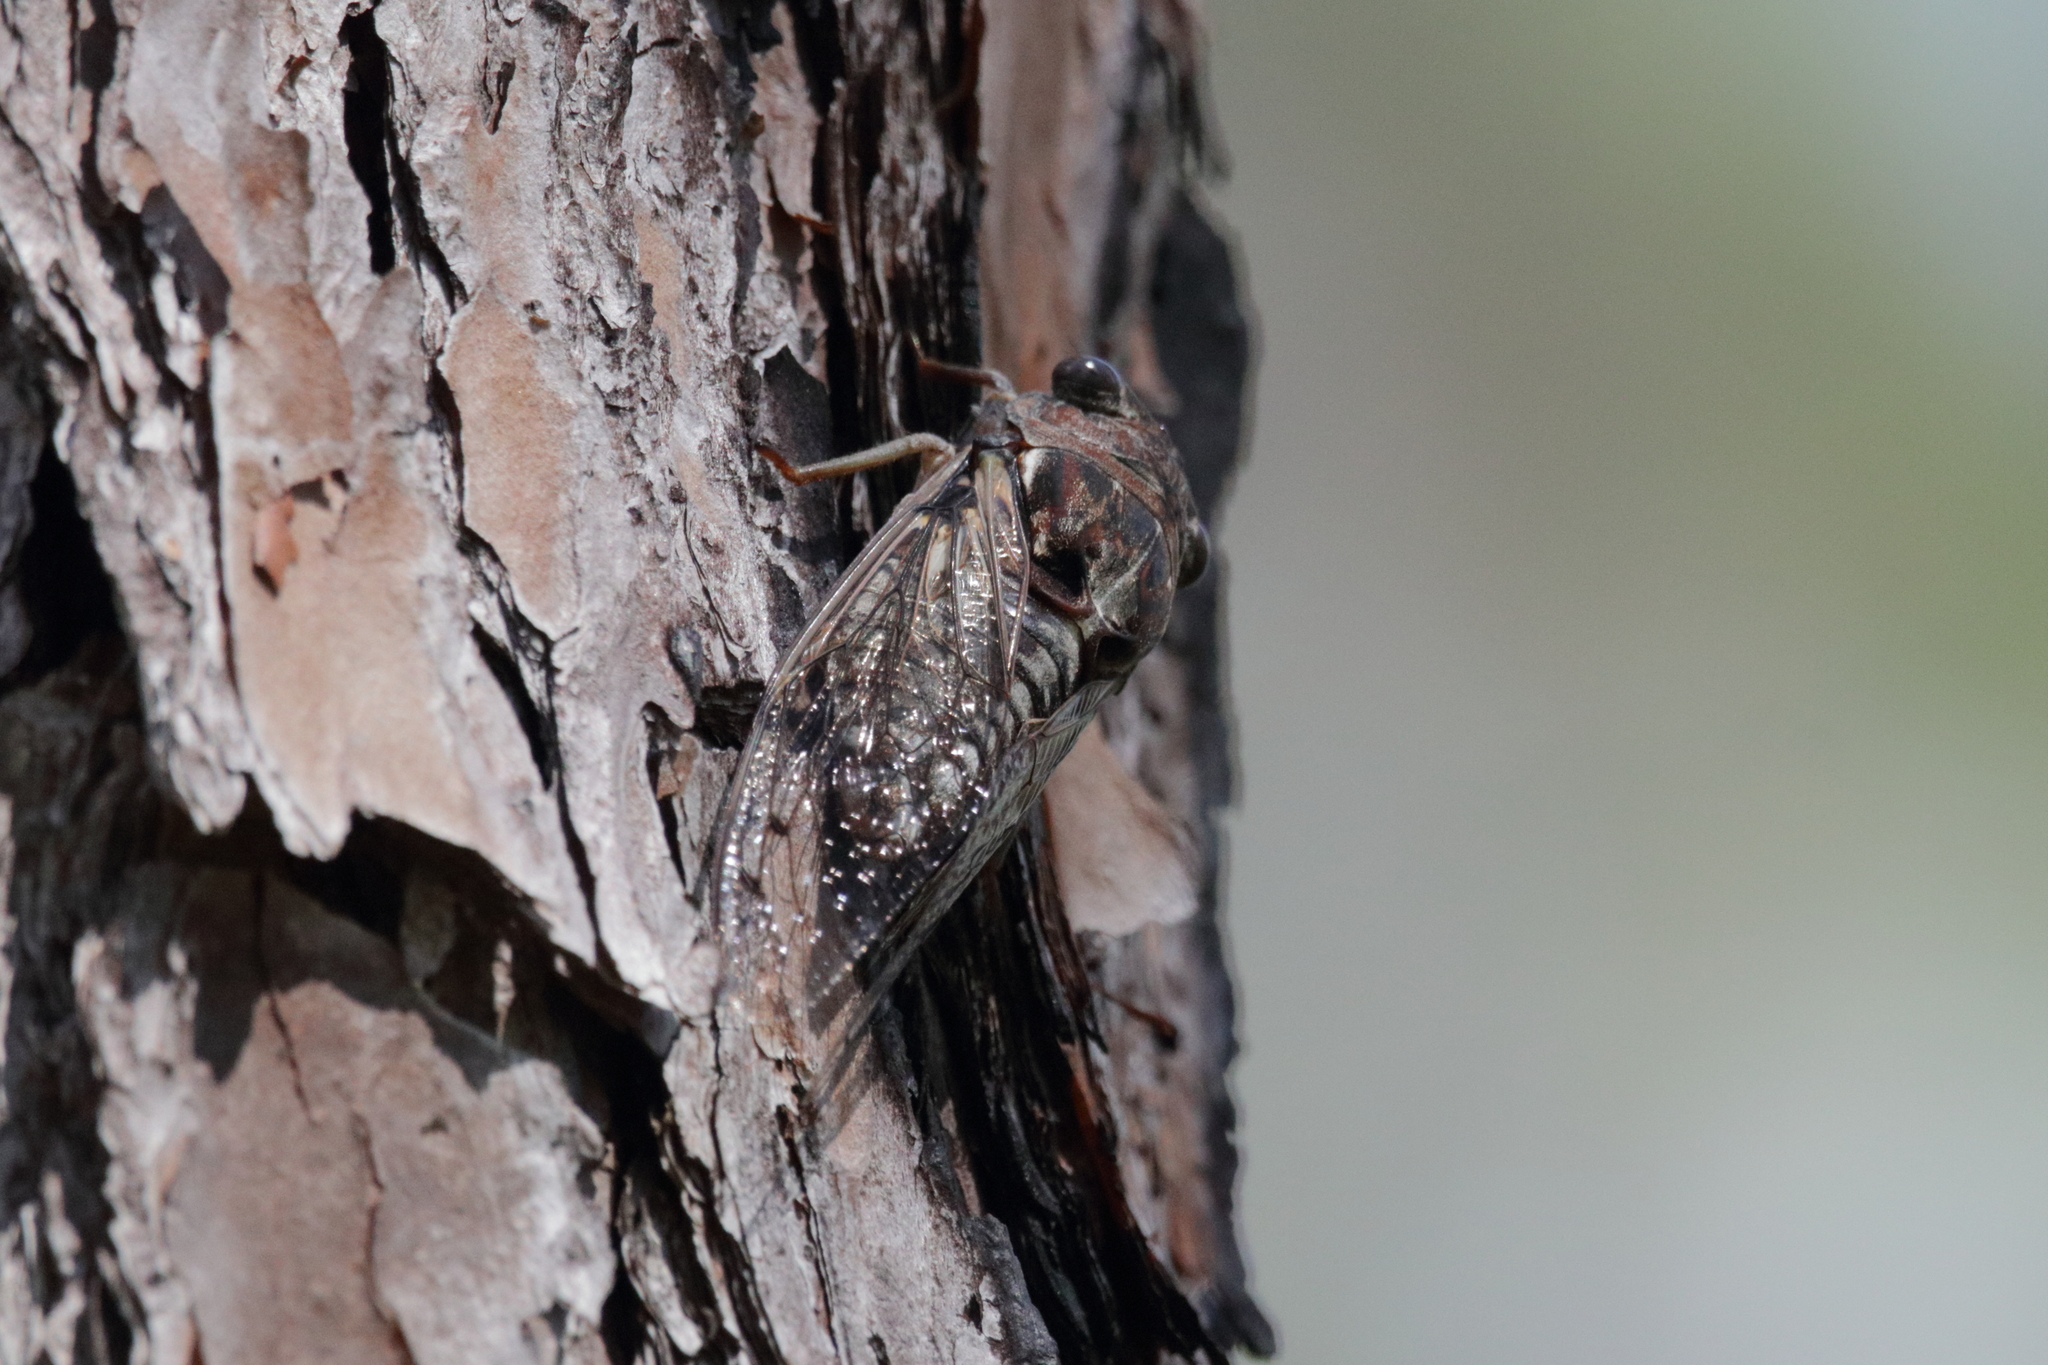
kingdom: Animalia
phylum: Arthropoda
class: Insecta
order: Hemiptera
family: Cicadidae
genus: Megatibicen
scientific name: Megatibicen figuratus
